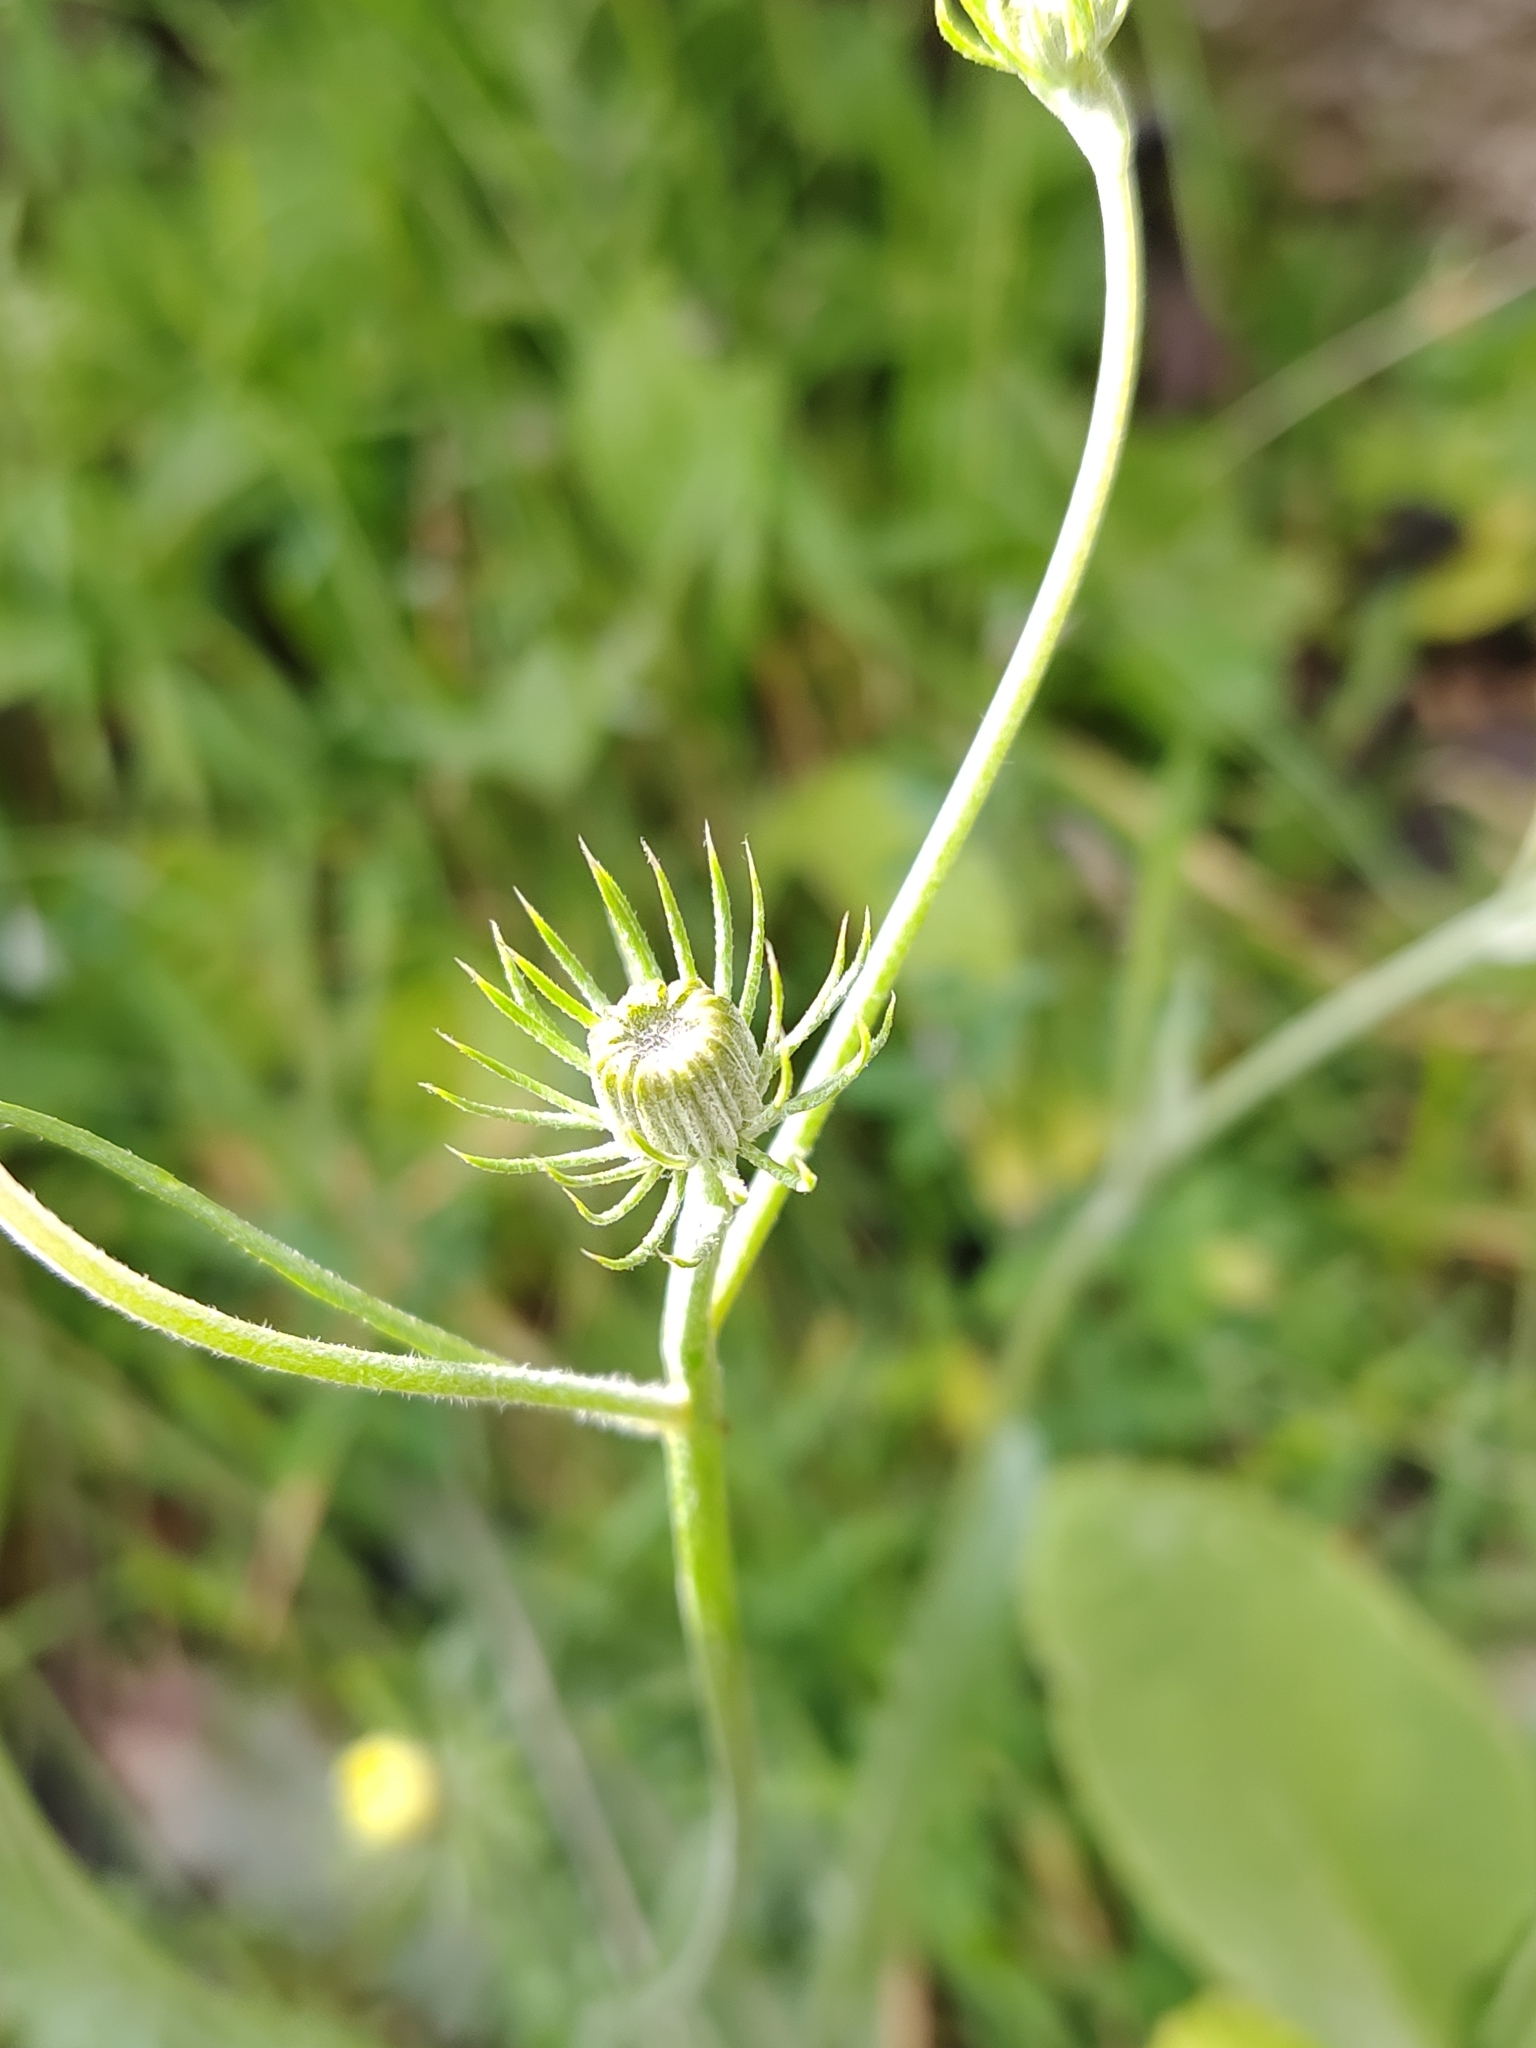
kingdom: Plantae
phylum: Tracheophyta
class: Magnoliopsida
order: Asterales
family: Asteraceae
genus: Tolpis
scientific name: Tolpis barbata
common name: Yellow hawkweed
